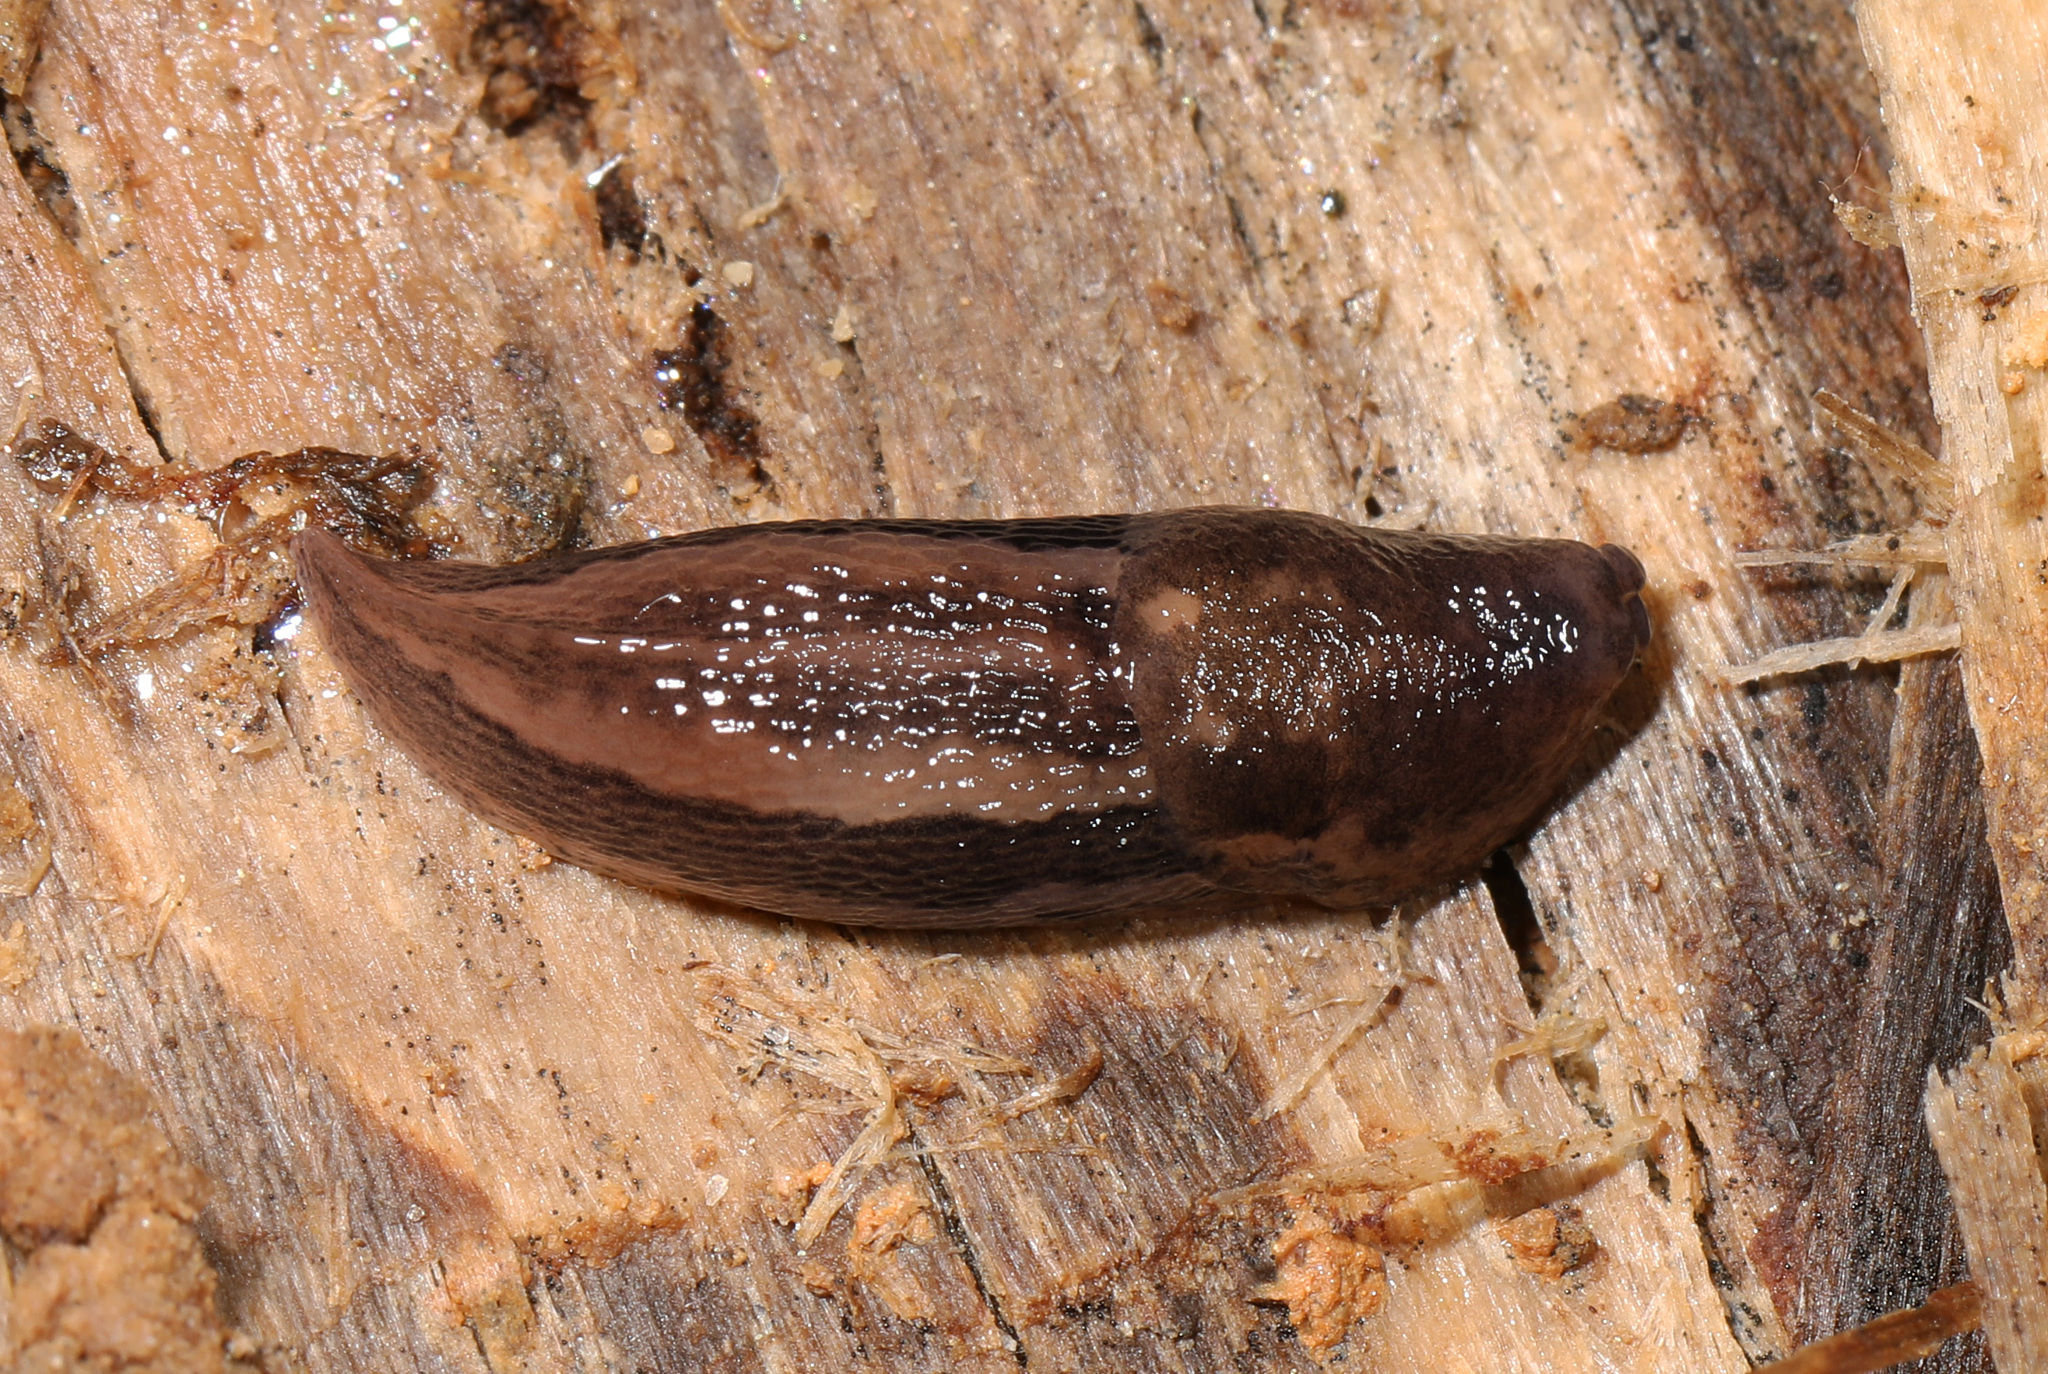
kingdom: Animalia
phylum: Mollusca
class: Gastropoda
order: Stylommatophora
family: Limacidae
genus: Limax
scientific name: Limax maximus
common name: Great grey slug
